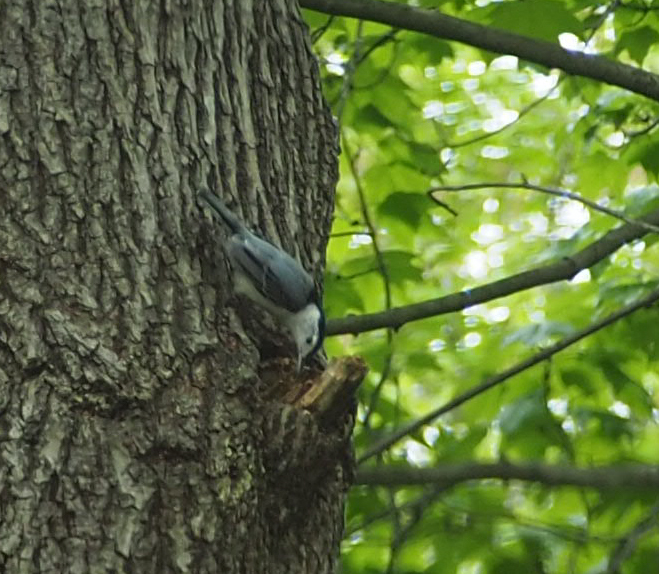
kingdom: Animalia
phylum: Chordata
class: Aves
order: Passeriformes
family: Sittidae
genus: Sitta
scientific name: Sitta carolinensis
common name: White-breasted nuthatch
